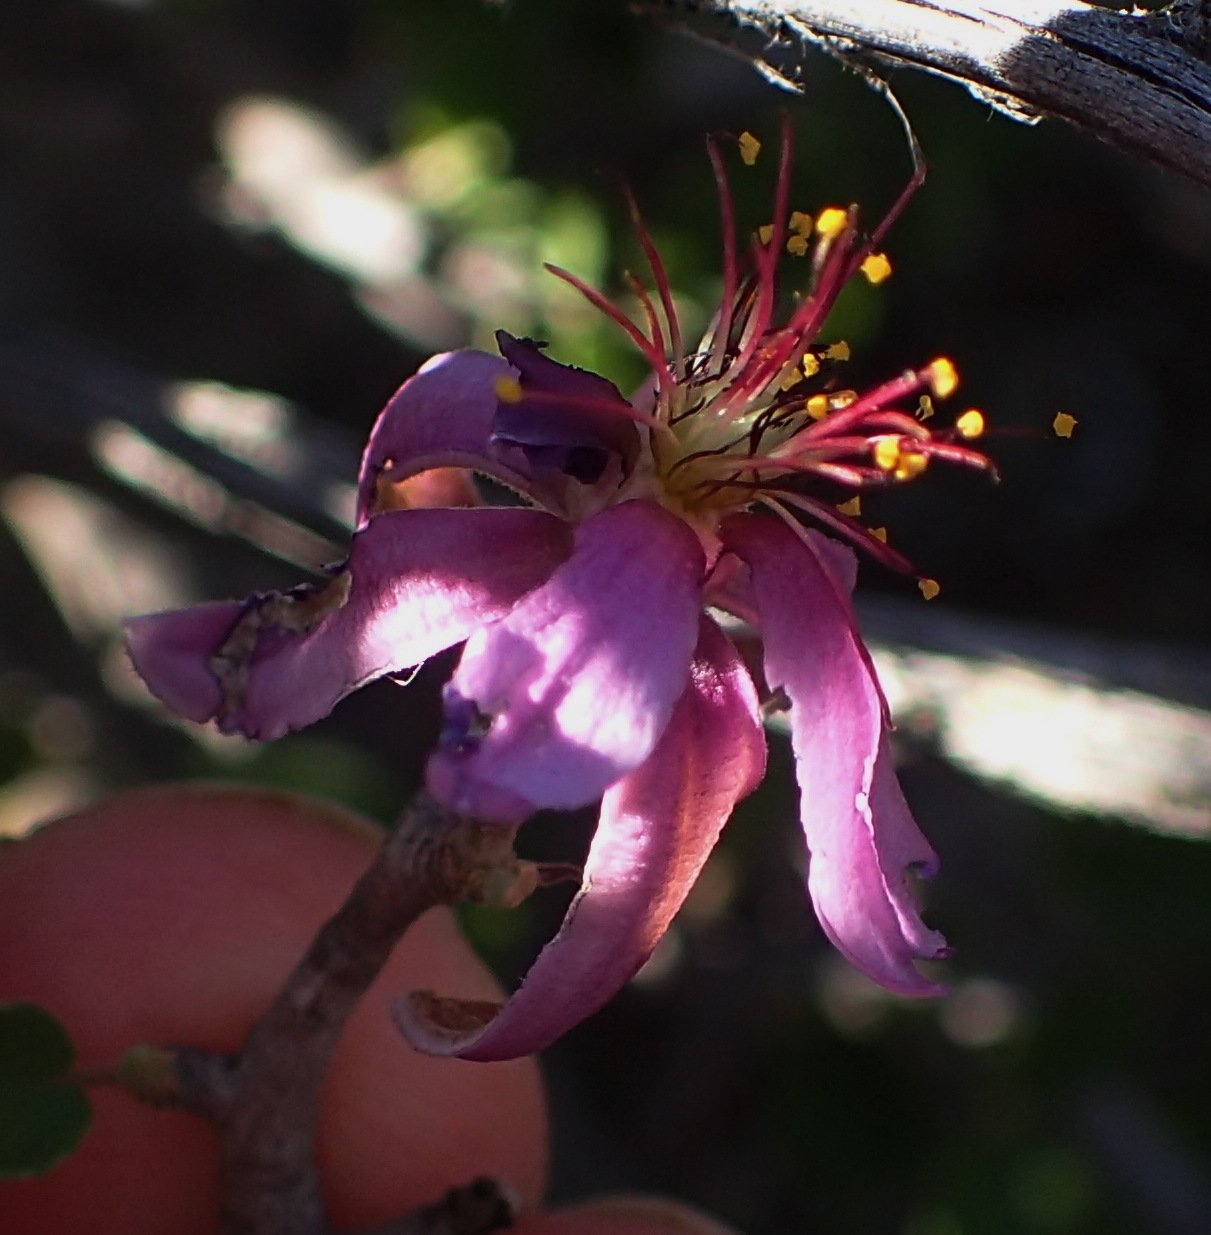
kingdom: Plantae
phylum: Tracheophyta
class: Magnoliopsida
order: Malvales
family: Malvaceae
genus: Grewia
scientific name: Grewia robusta
